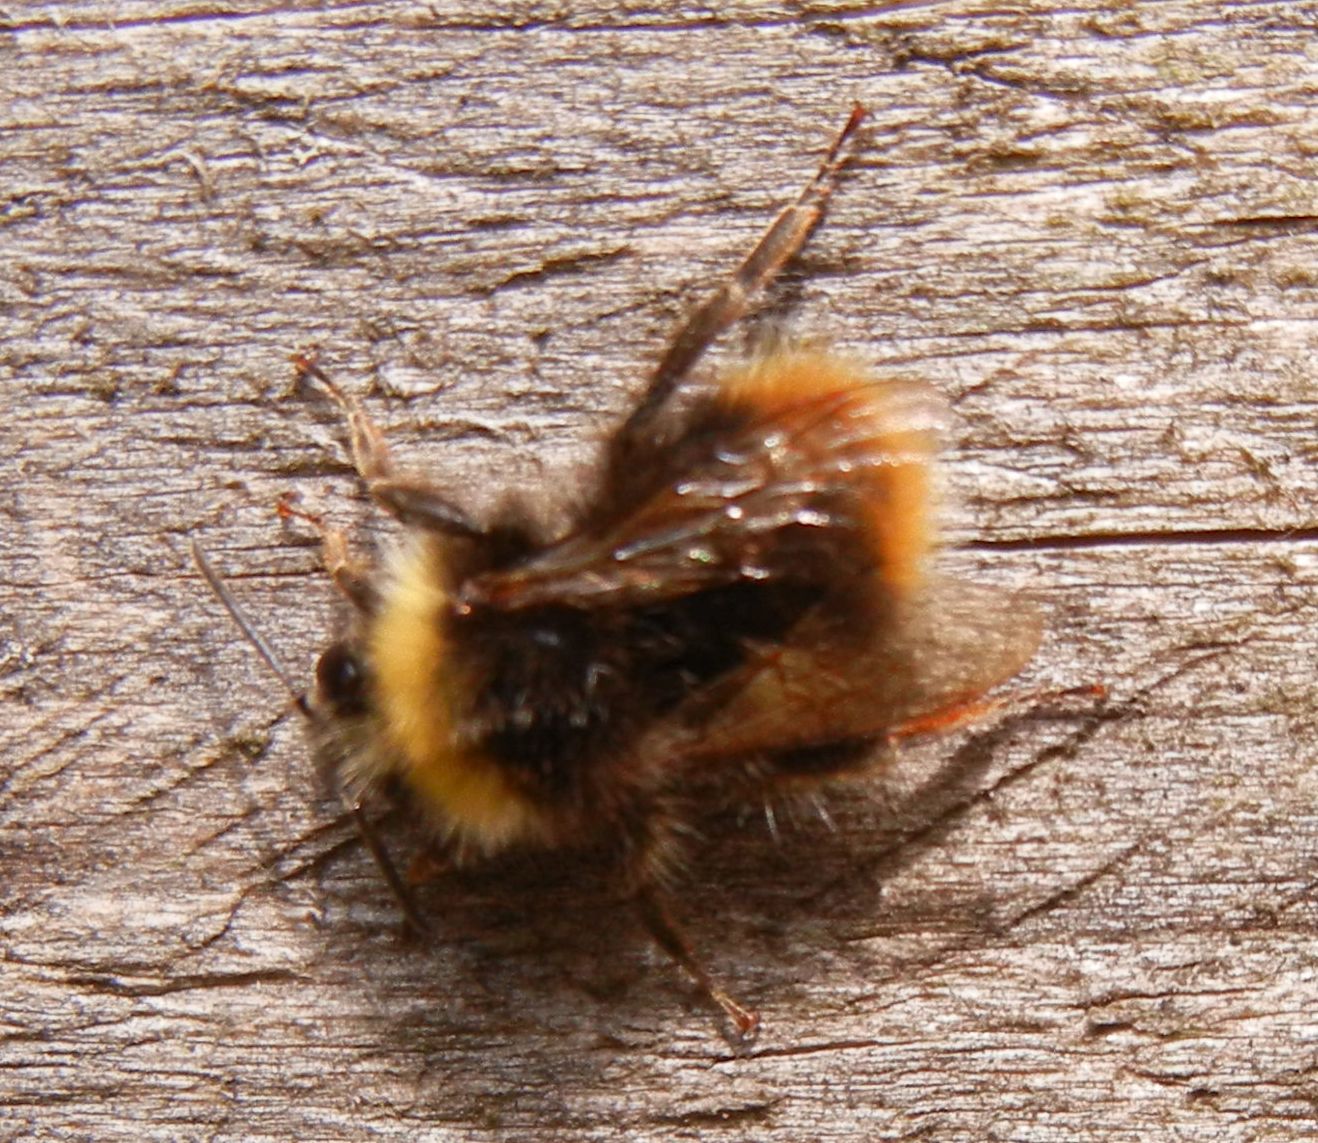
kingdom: Animalia
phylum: Arthropoda
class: Insecta
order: Hymenoptera
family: Apidae
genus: Bombus
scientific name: Bombus pratorum
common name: Early humble-bee
